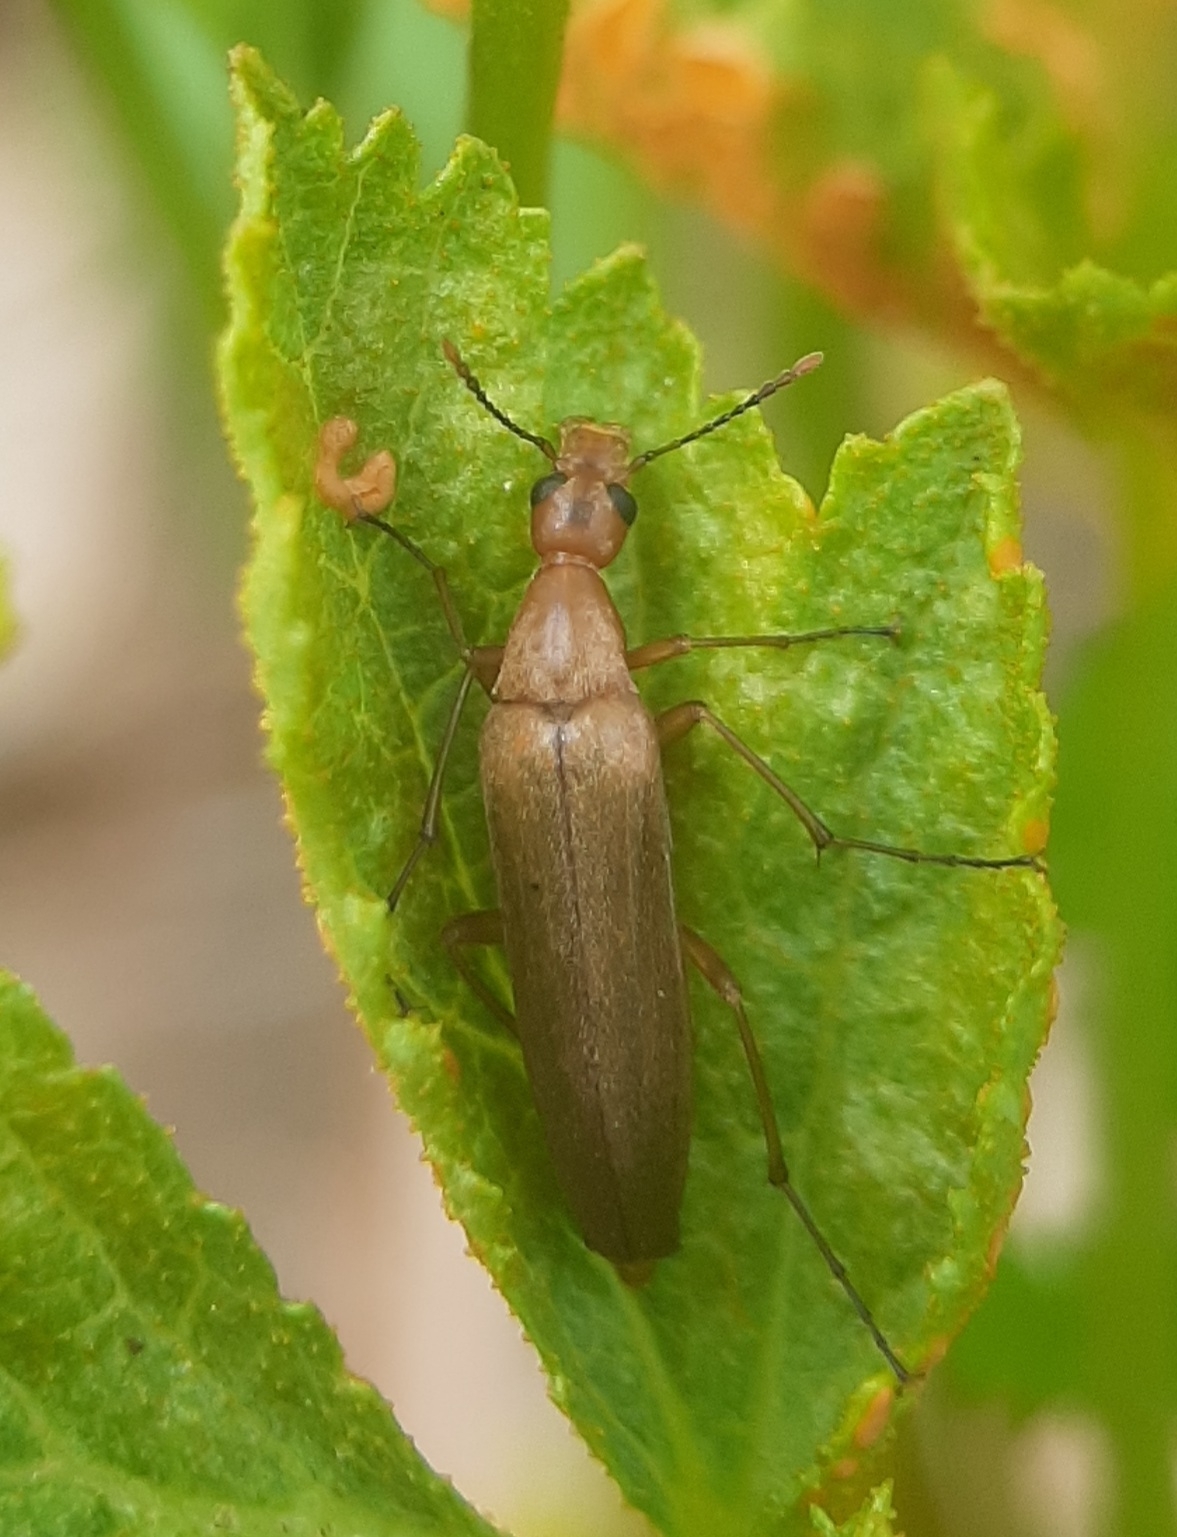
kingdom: Animalia
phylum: Arthropoda
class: Insecta
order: Coleoptera
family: Stenotrachelidae
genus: Cephaloon
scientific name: Cephaloon lepturides
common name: False leptura beetle
